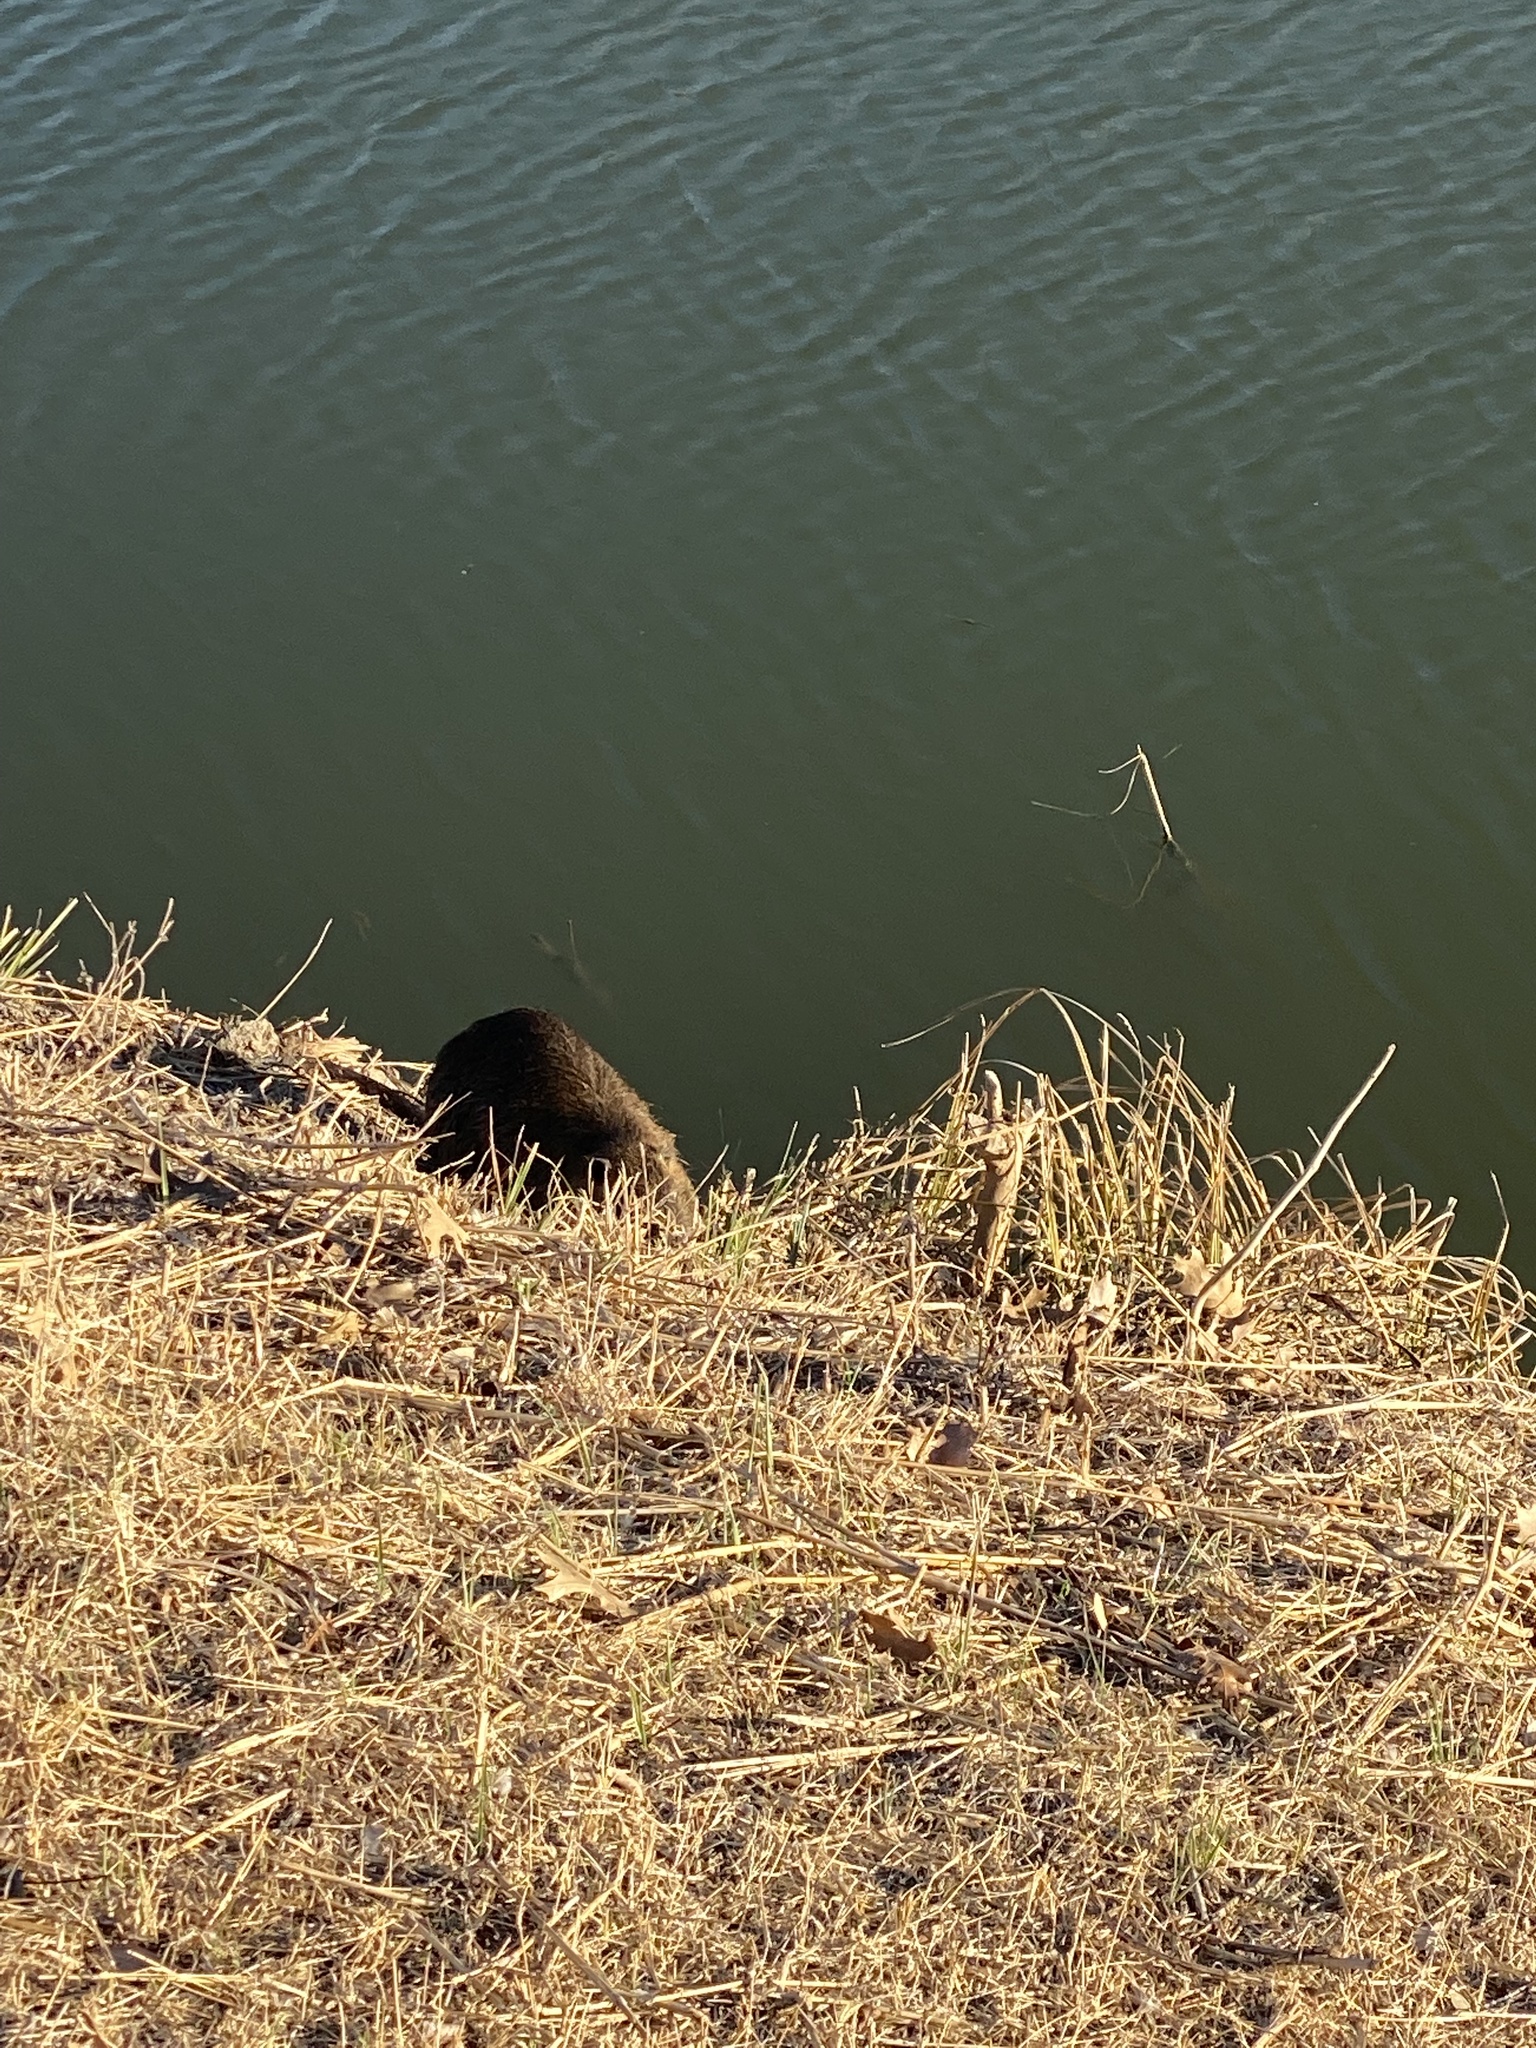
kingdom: Animalia
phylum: Chordata
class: Mammalia
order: Rodentia
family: Myocastoridae
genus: Myocastor
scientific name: Myocastor coypus
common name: Coypu
